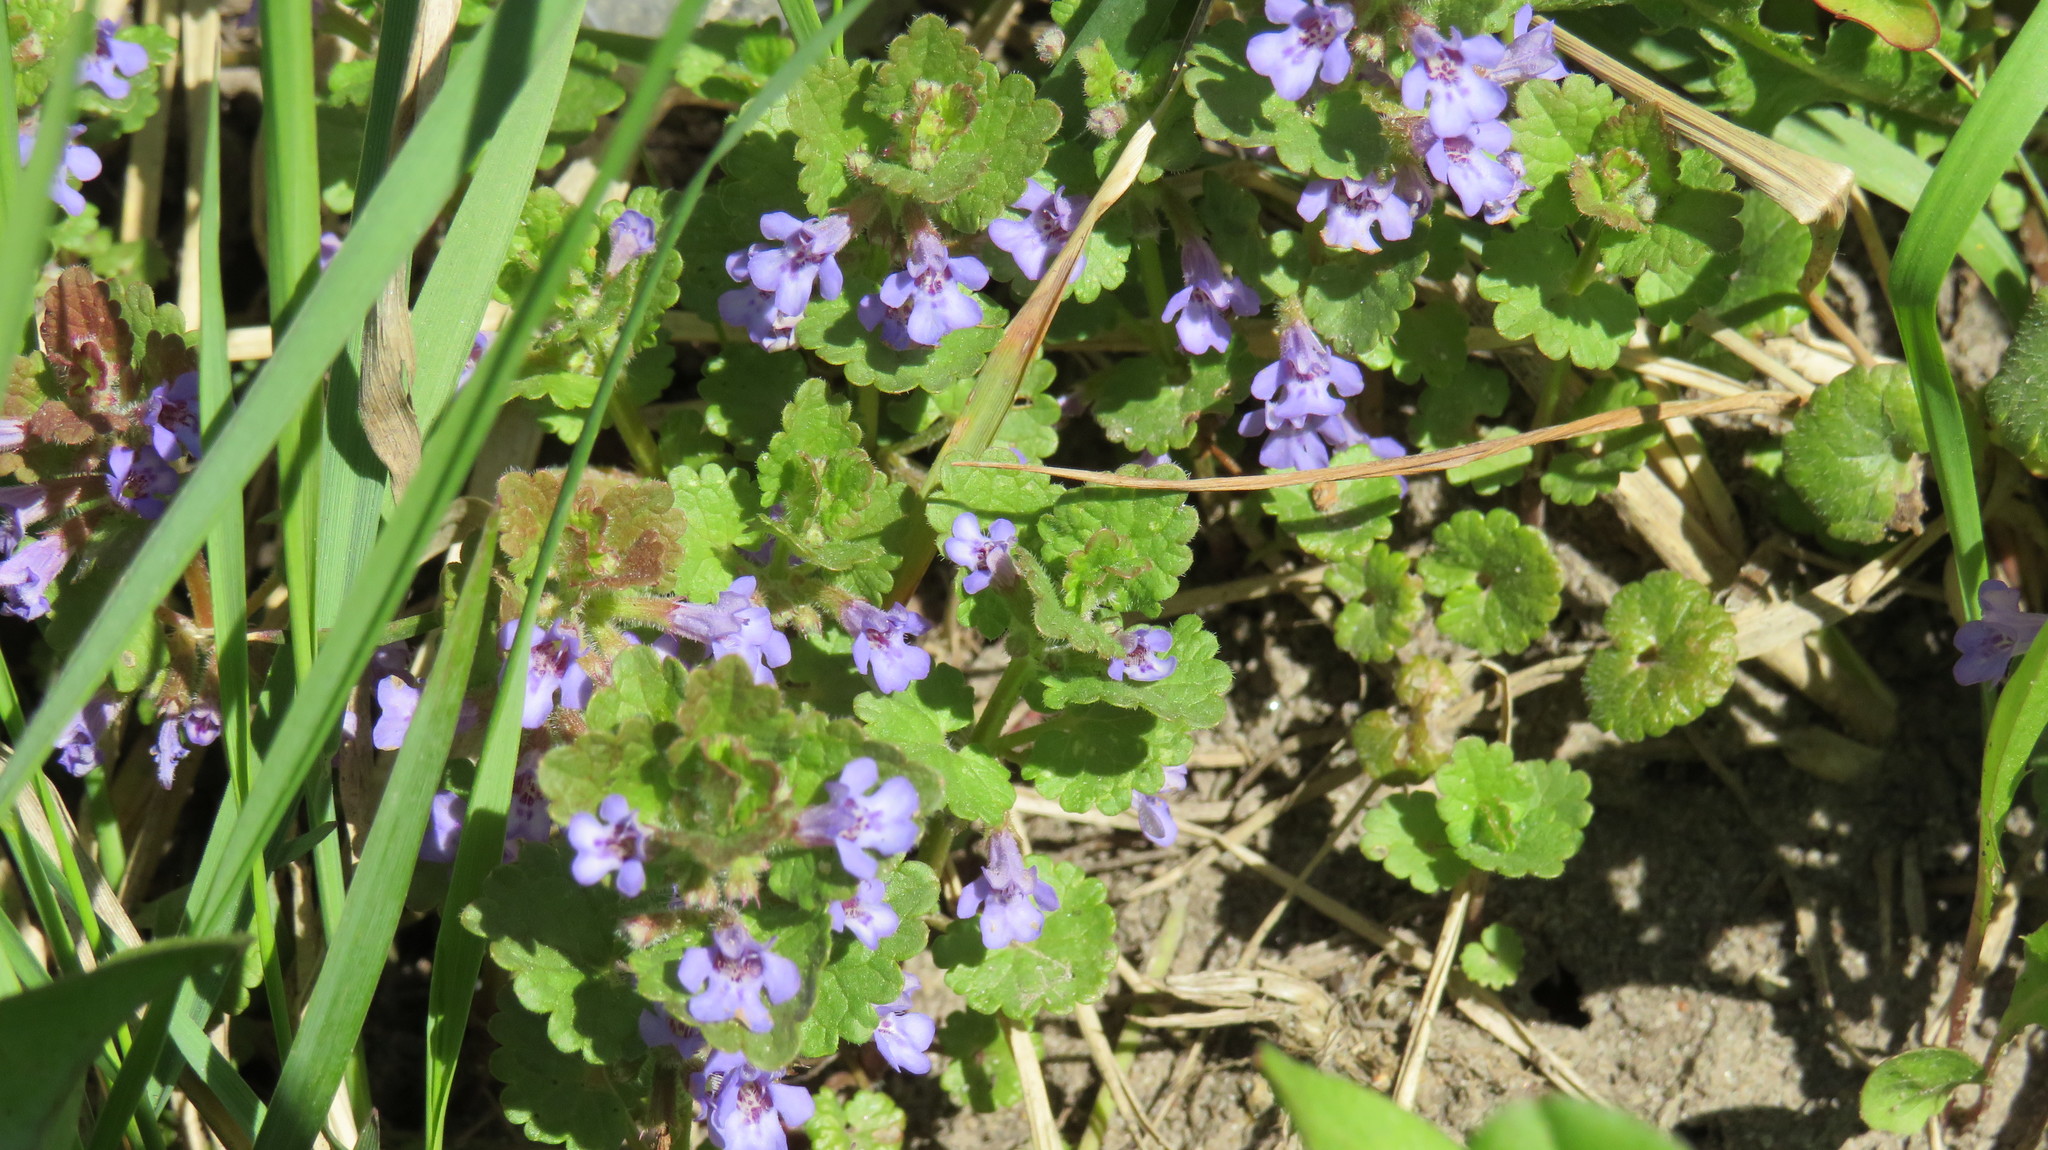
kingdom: Plantae
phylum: Tracheophyta
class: Magnoliopsida
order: Lamiales
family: Lamiaceae
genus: Glechoma
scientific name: Glechoma hederacea
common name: Ground ivy
